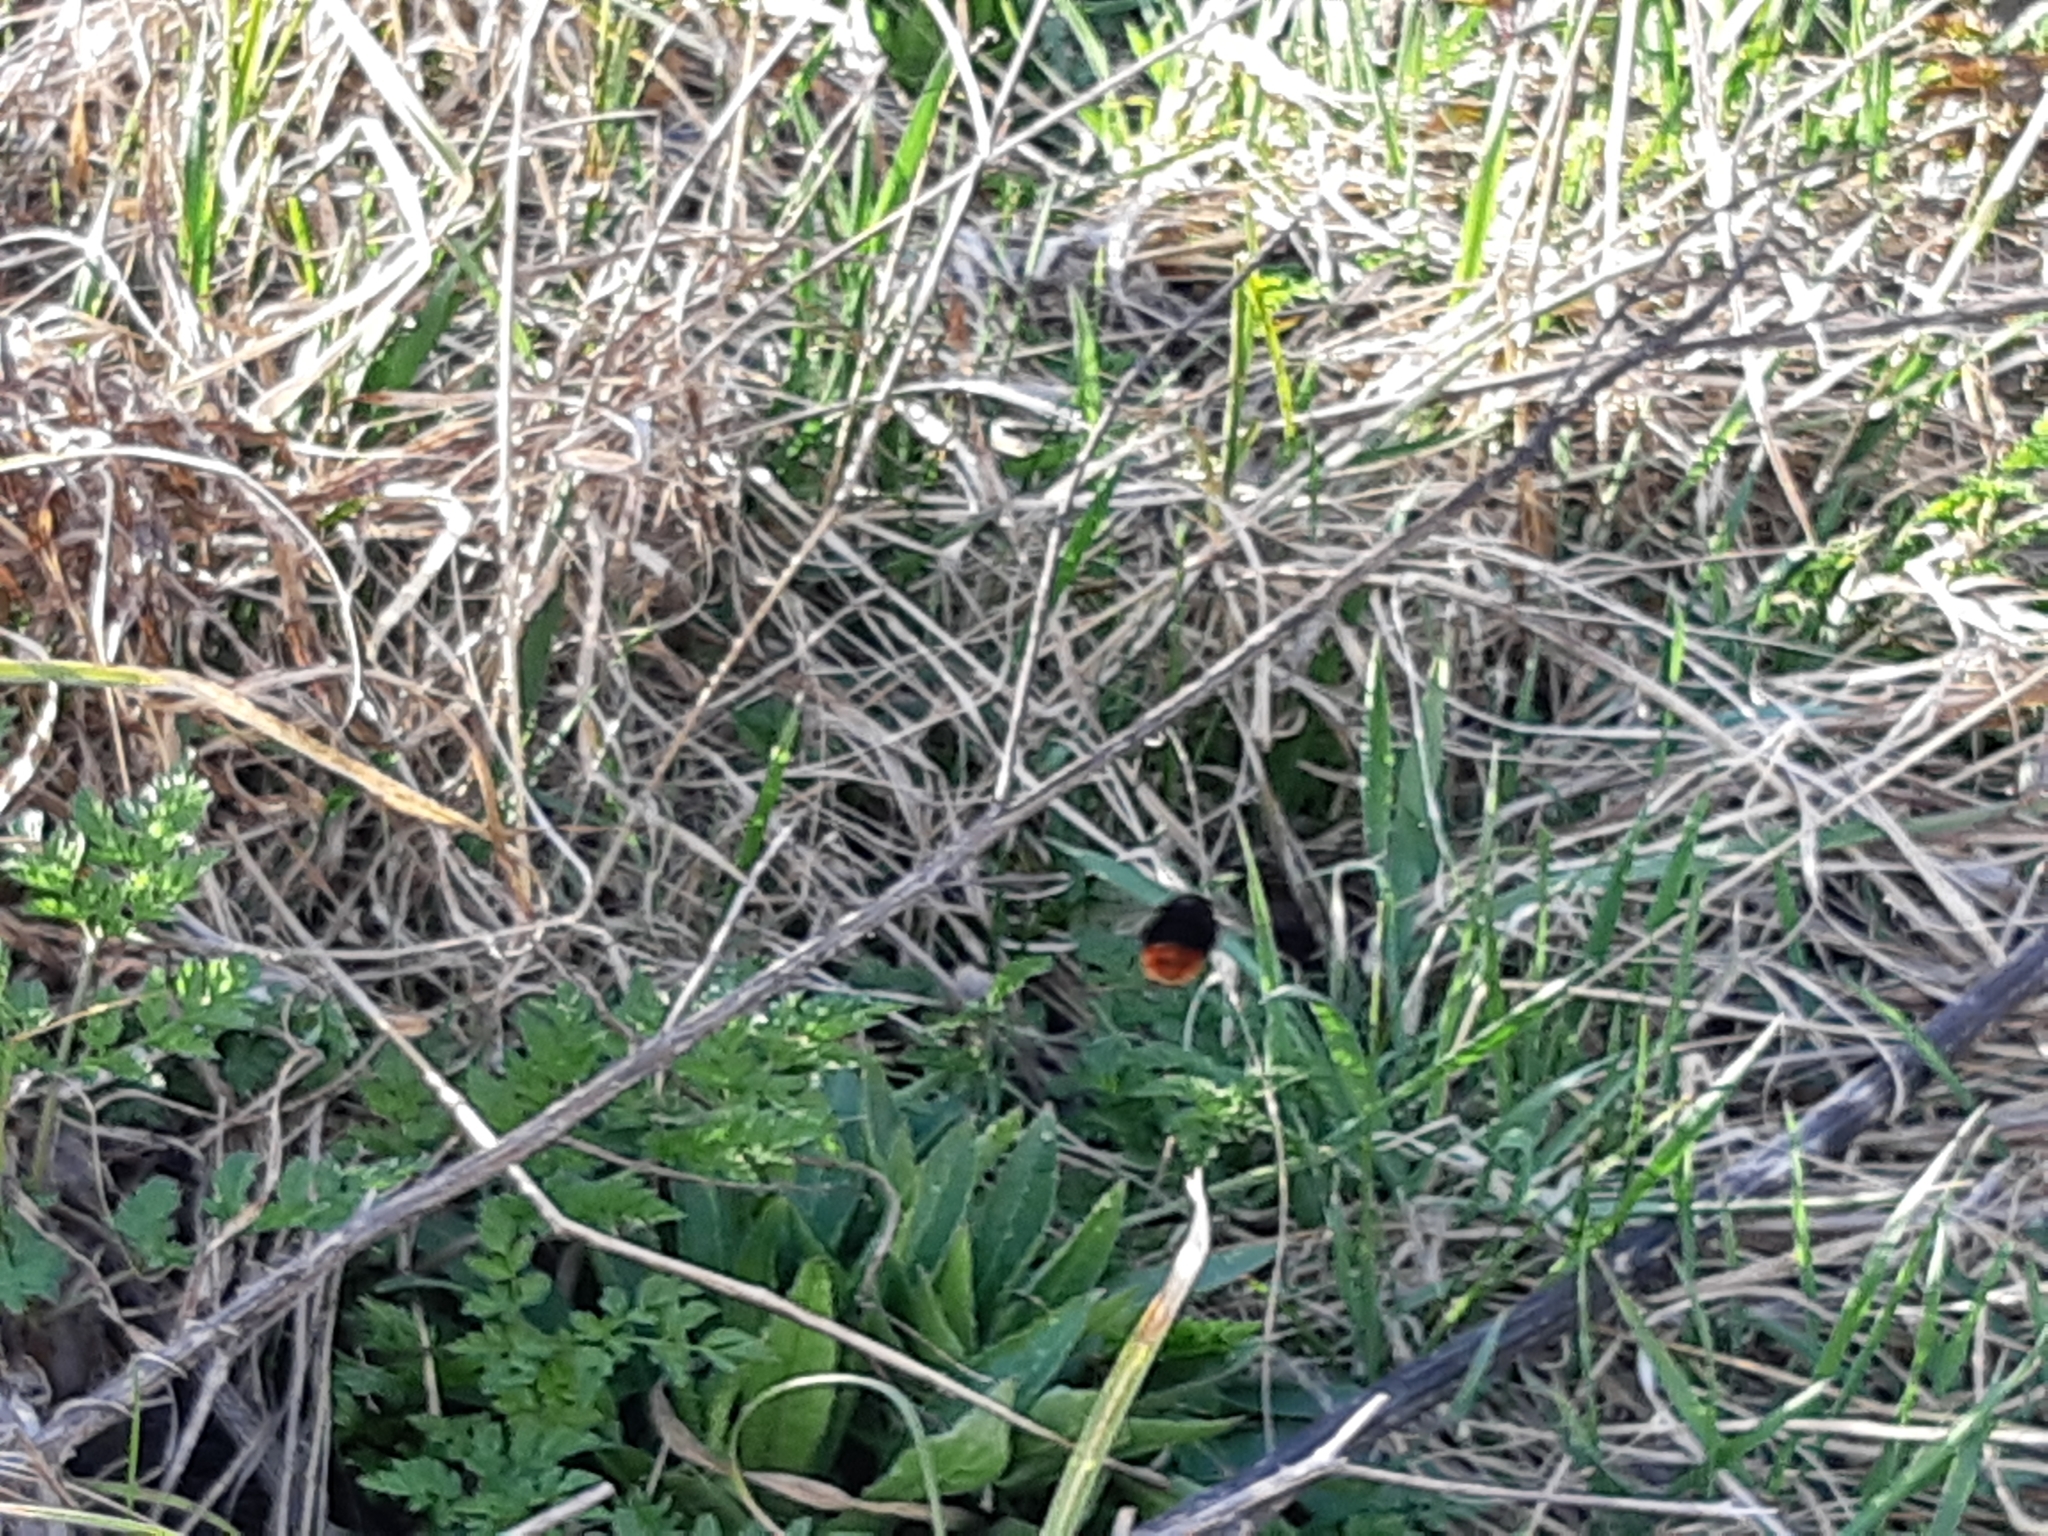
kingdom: Animalia
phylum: Arthropoda
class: Insecta
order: Hymenoptera
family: Apidae
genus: Bombus
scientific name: Bombus
